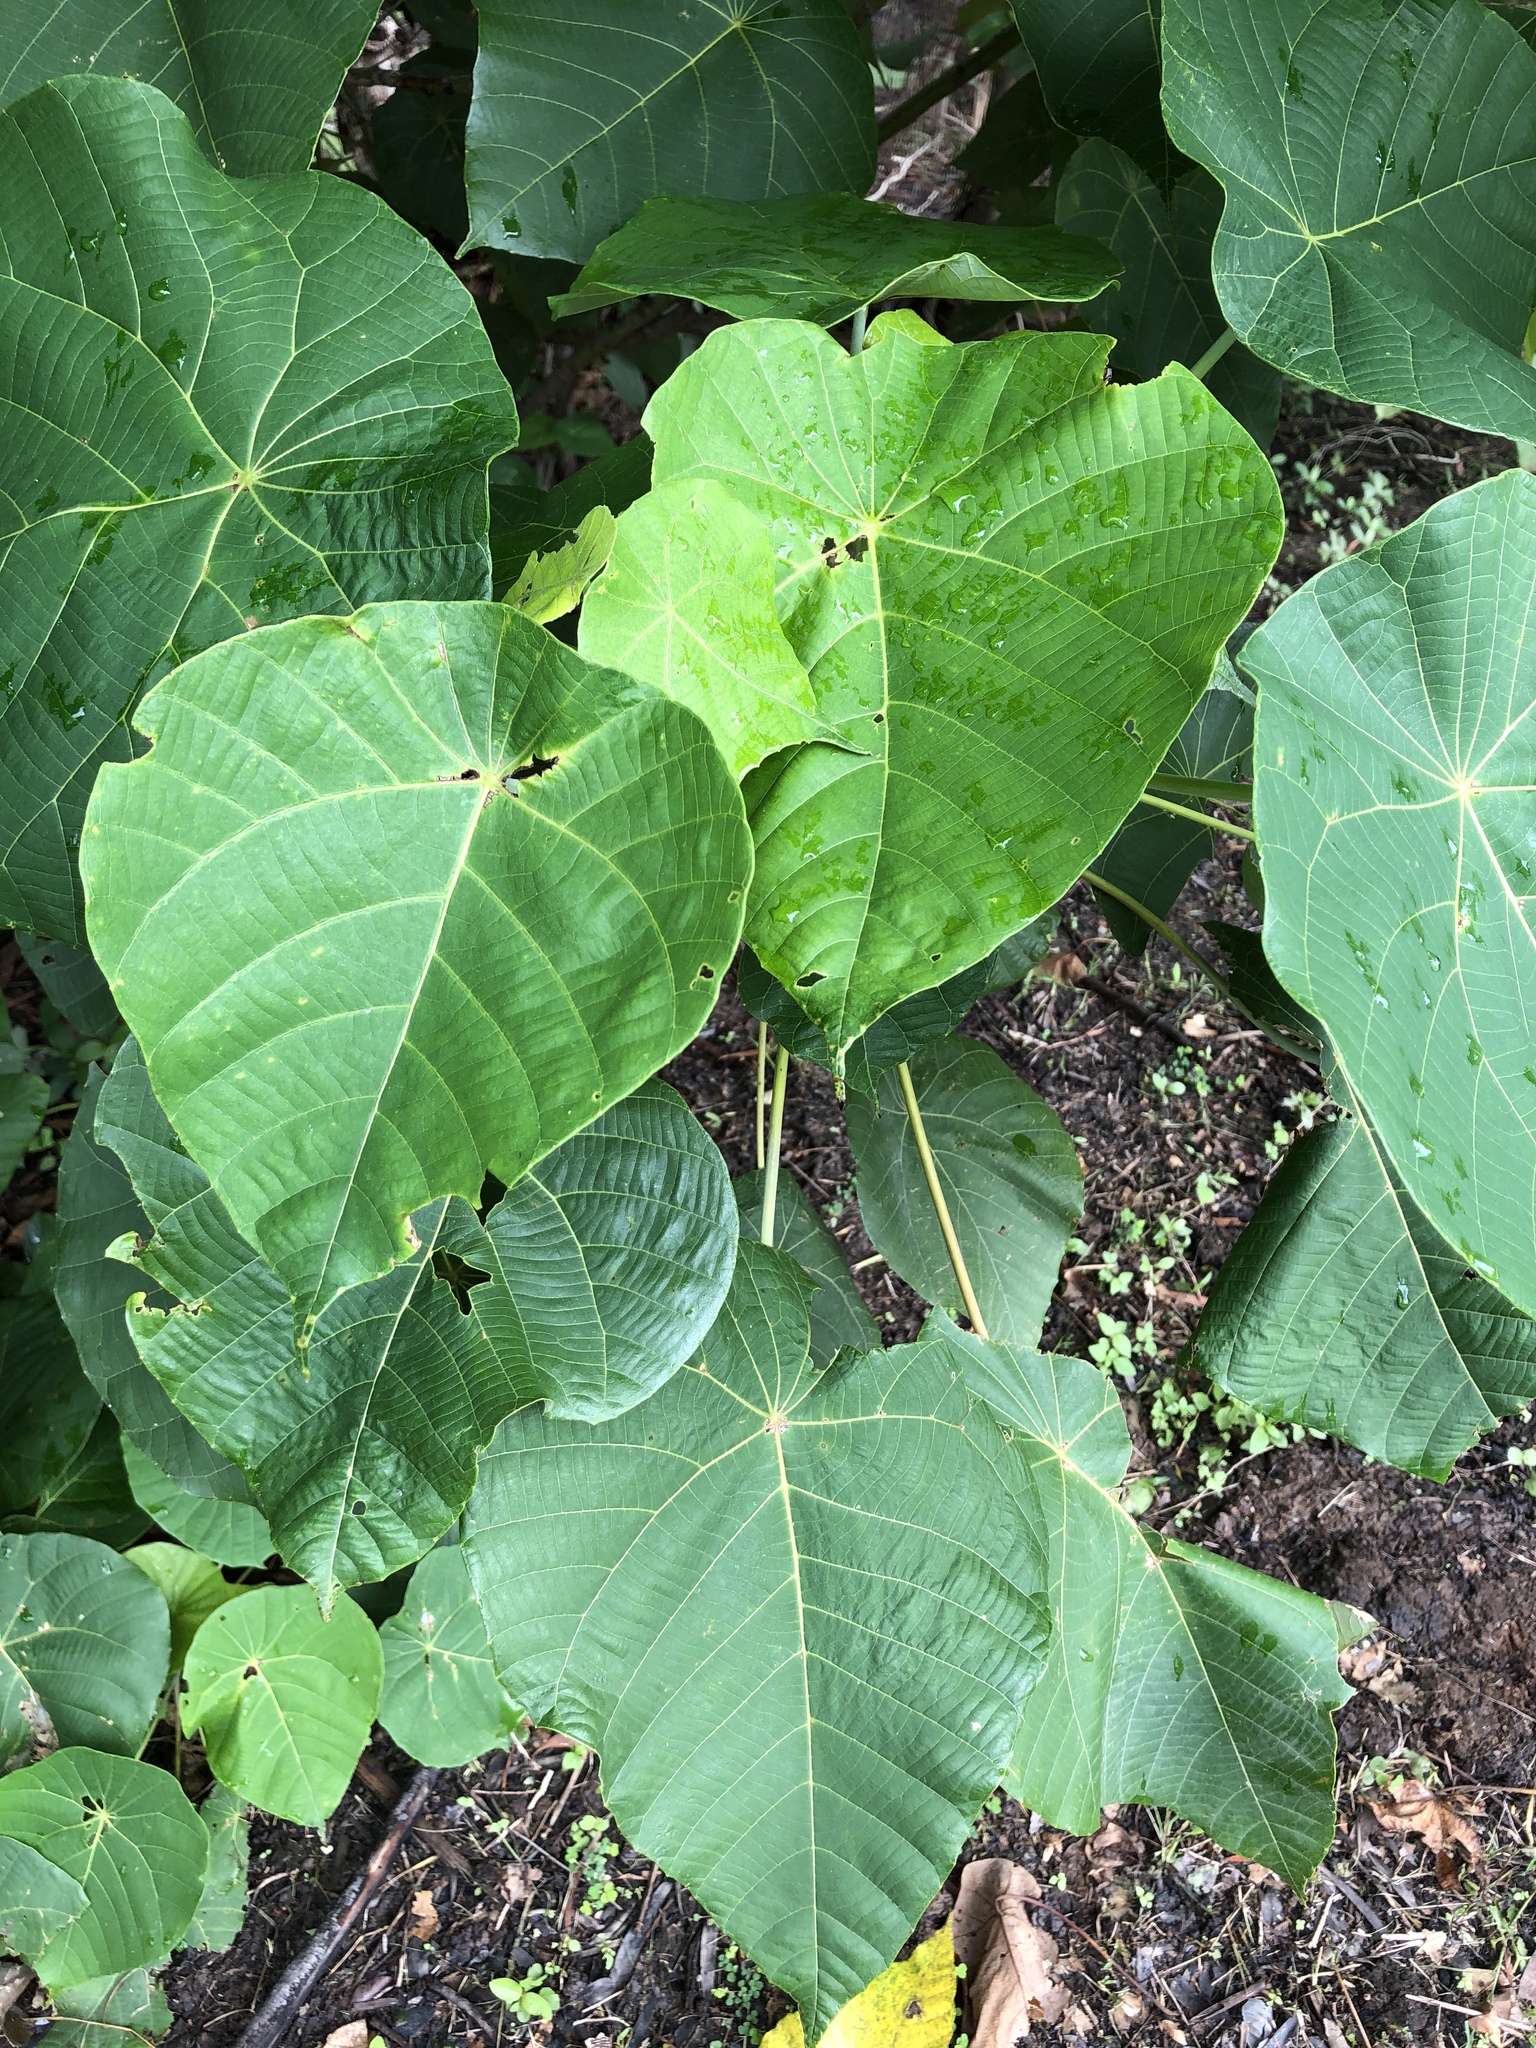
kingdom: Plantae
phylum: Tracheophyta
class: Magnoliopsida
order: Malpighiales
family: Euphorbiaceae
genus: Macaranga
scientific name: Macaranga tanarius
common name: Parasol leaf tree
